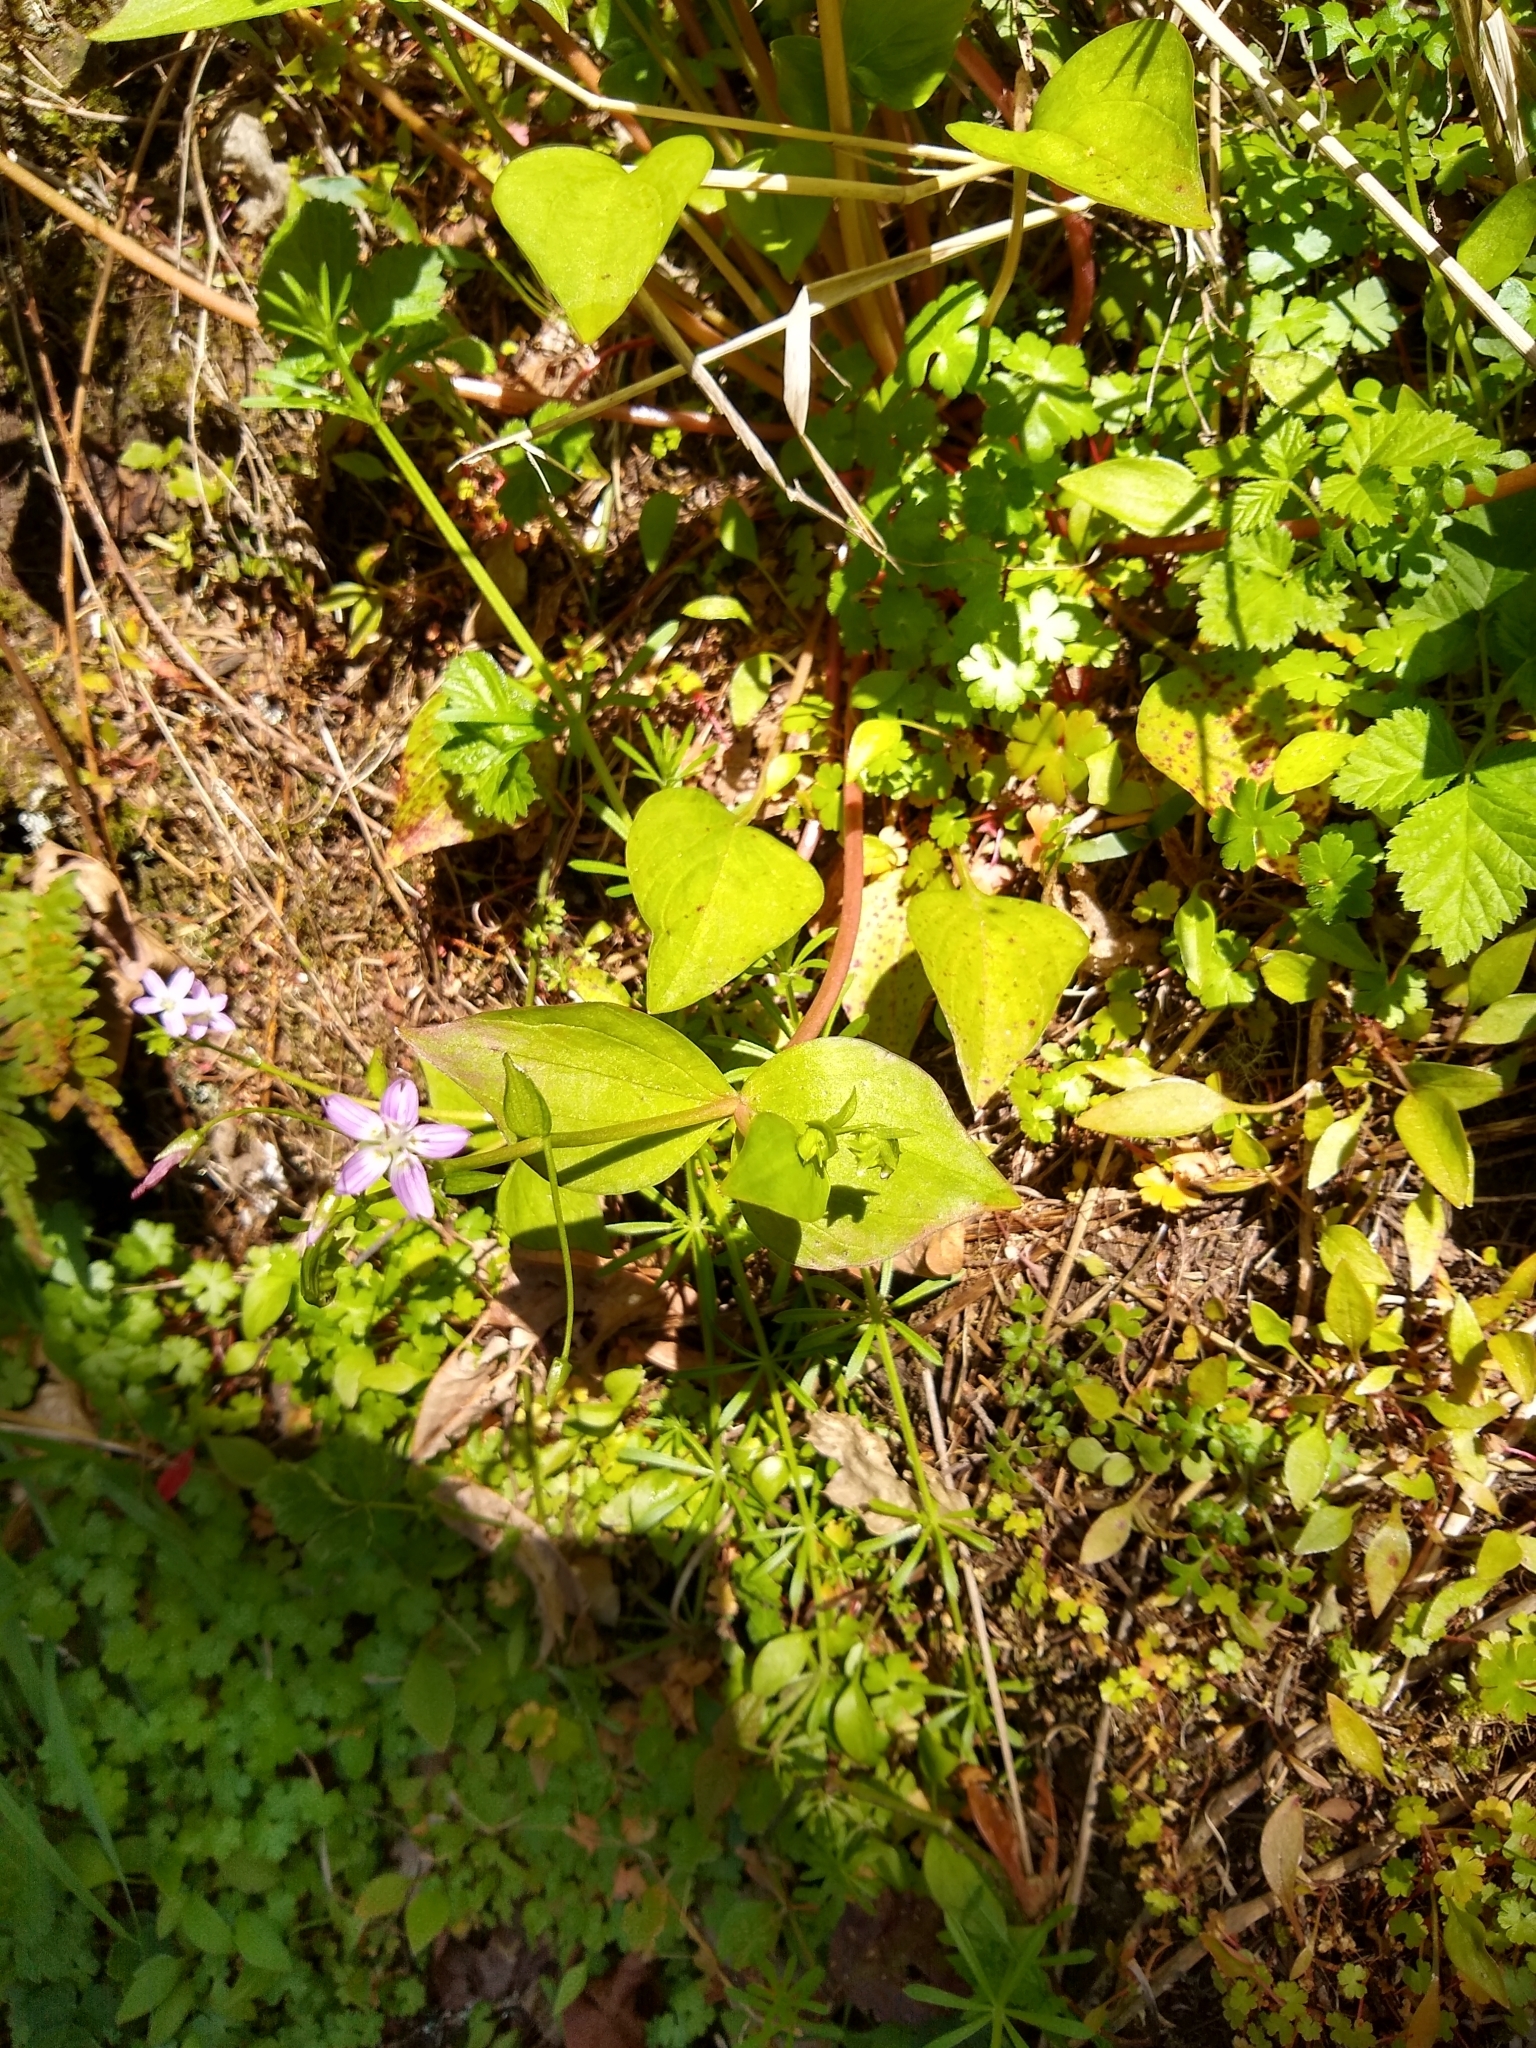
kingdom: Plantae
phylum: Tracheophyta
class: Magnoliopsida
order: Caryophyllales
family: Montiaceae
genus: Claytonia
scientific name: Claytonia sibirica
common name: Pink purslane
